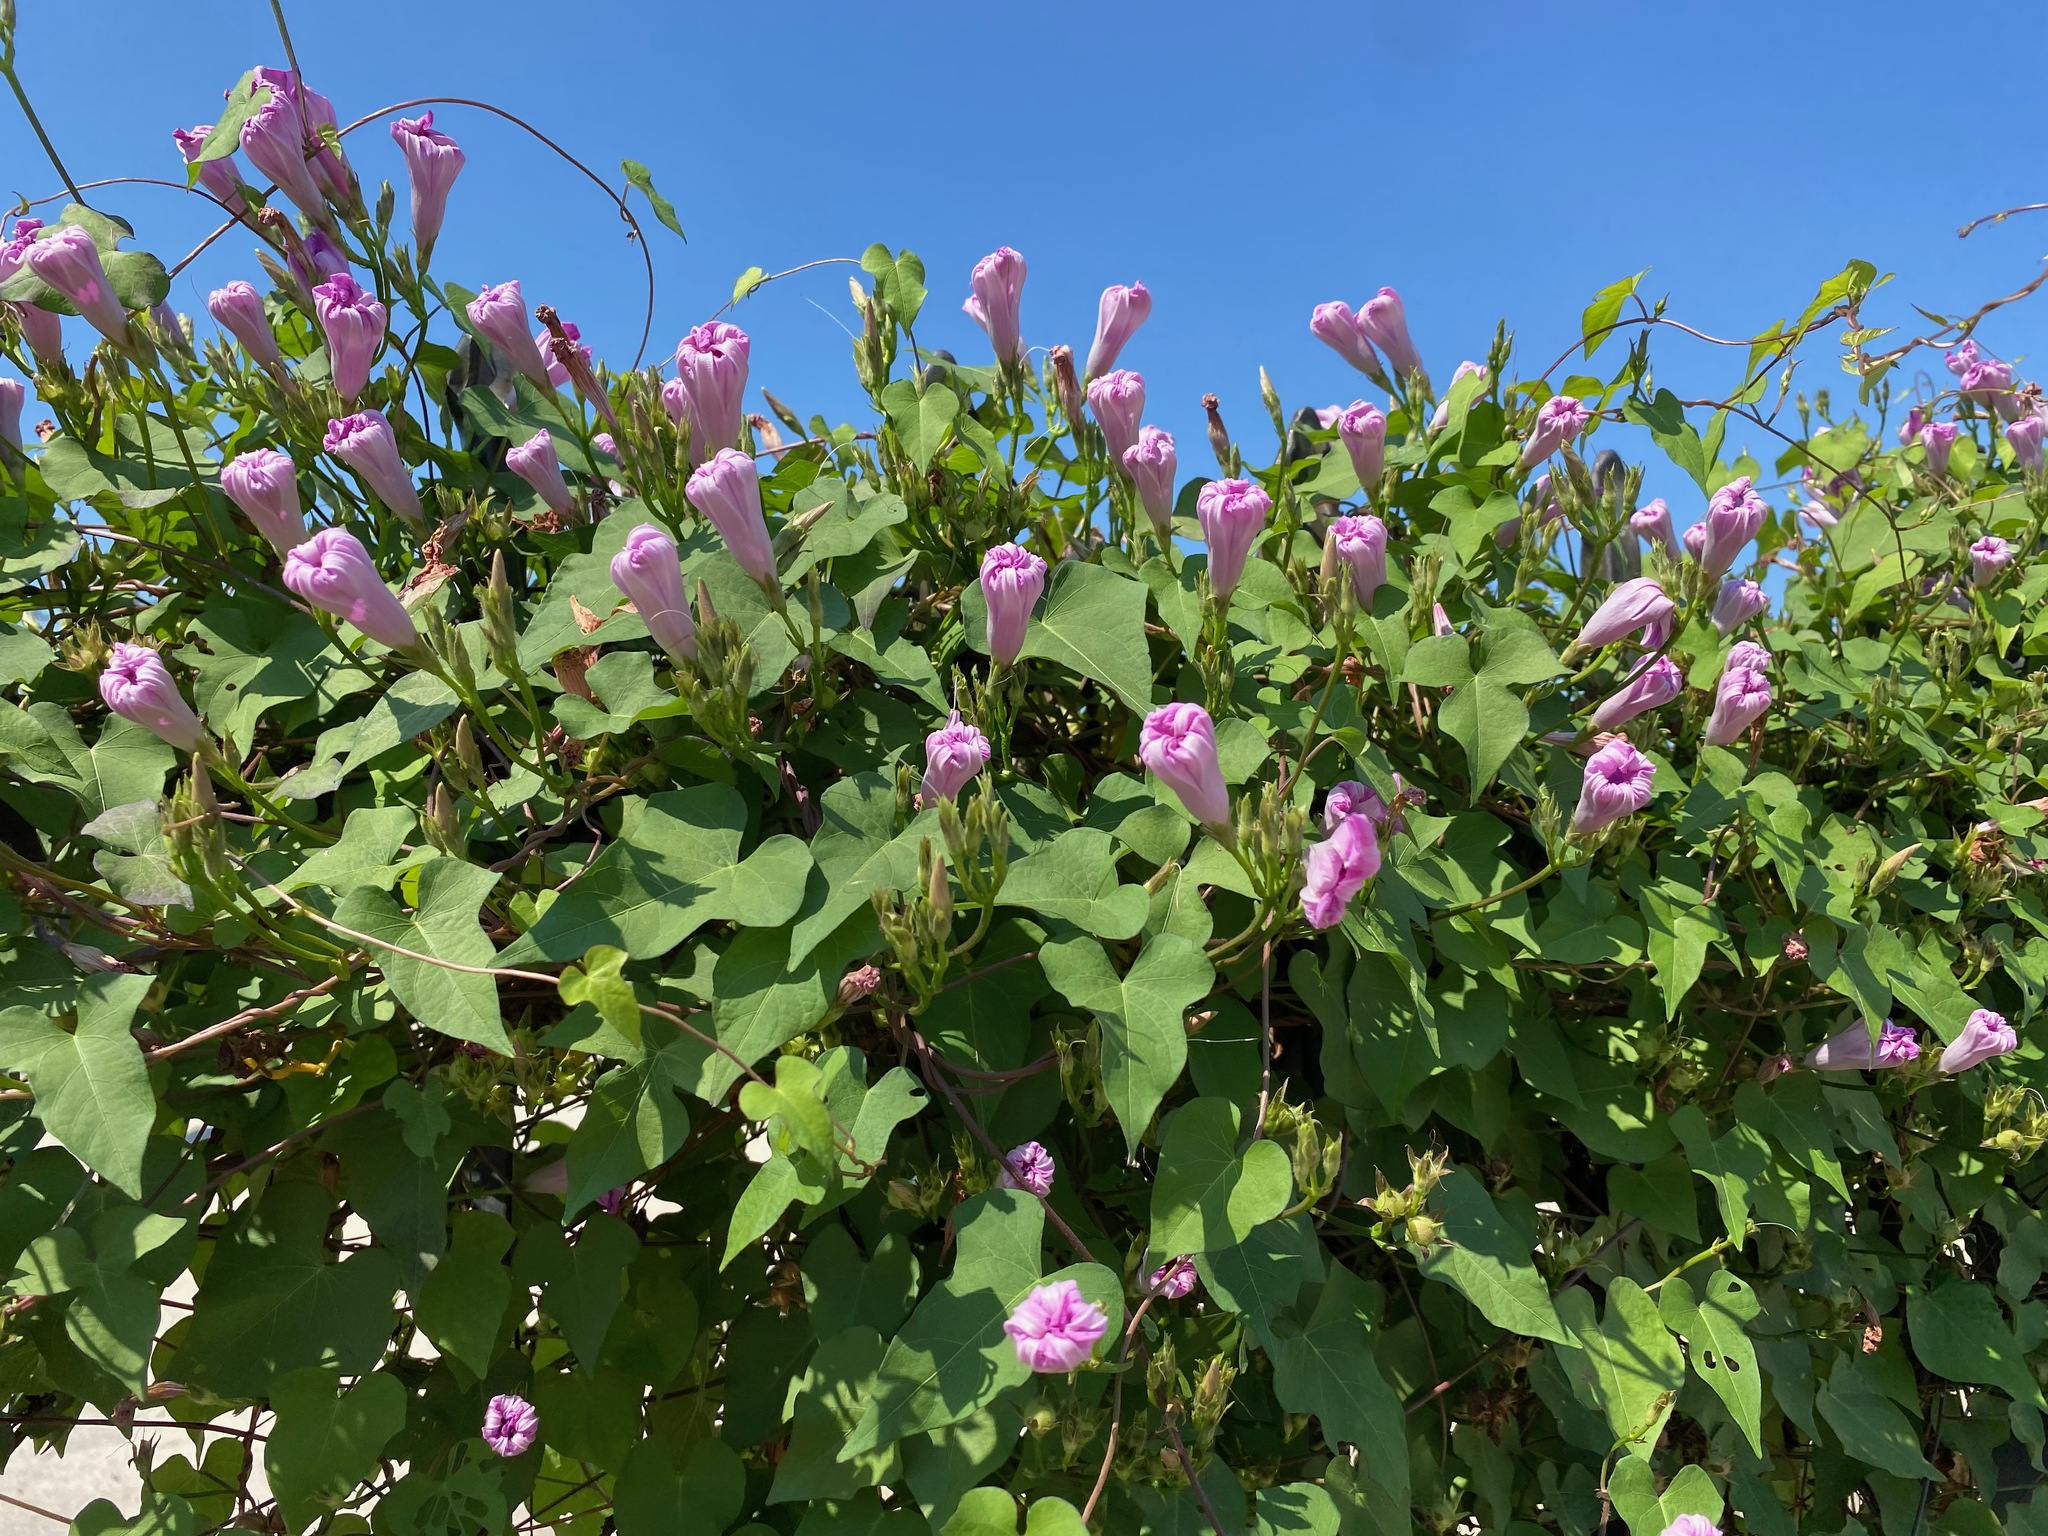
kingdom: Plantae
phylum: Tracheophyta
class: Magnoliopsida
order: Solanales
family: Convolvulaceae
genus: Ipomoea
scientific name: Ipomoea cordatotriloba
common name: Cotton morning glory
